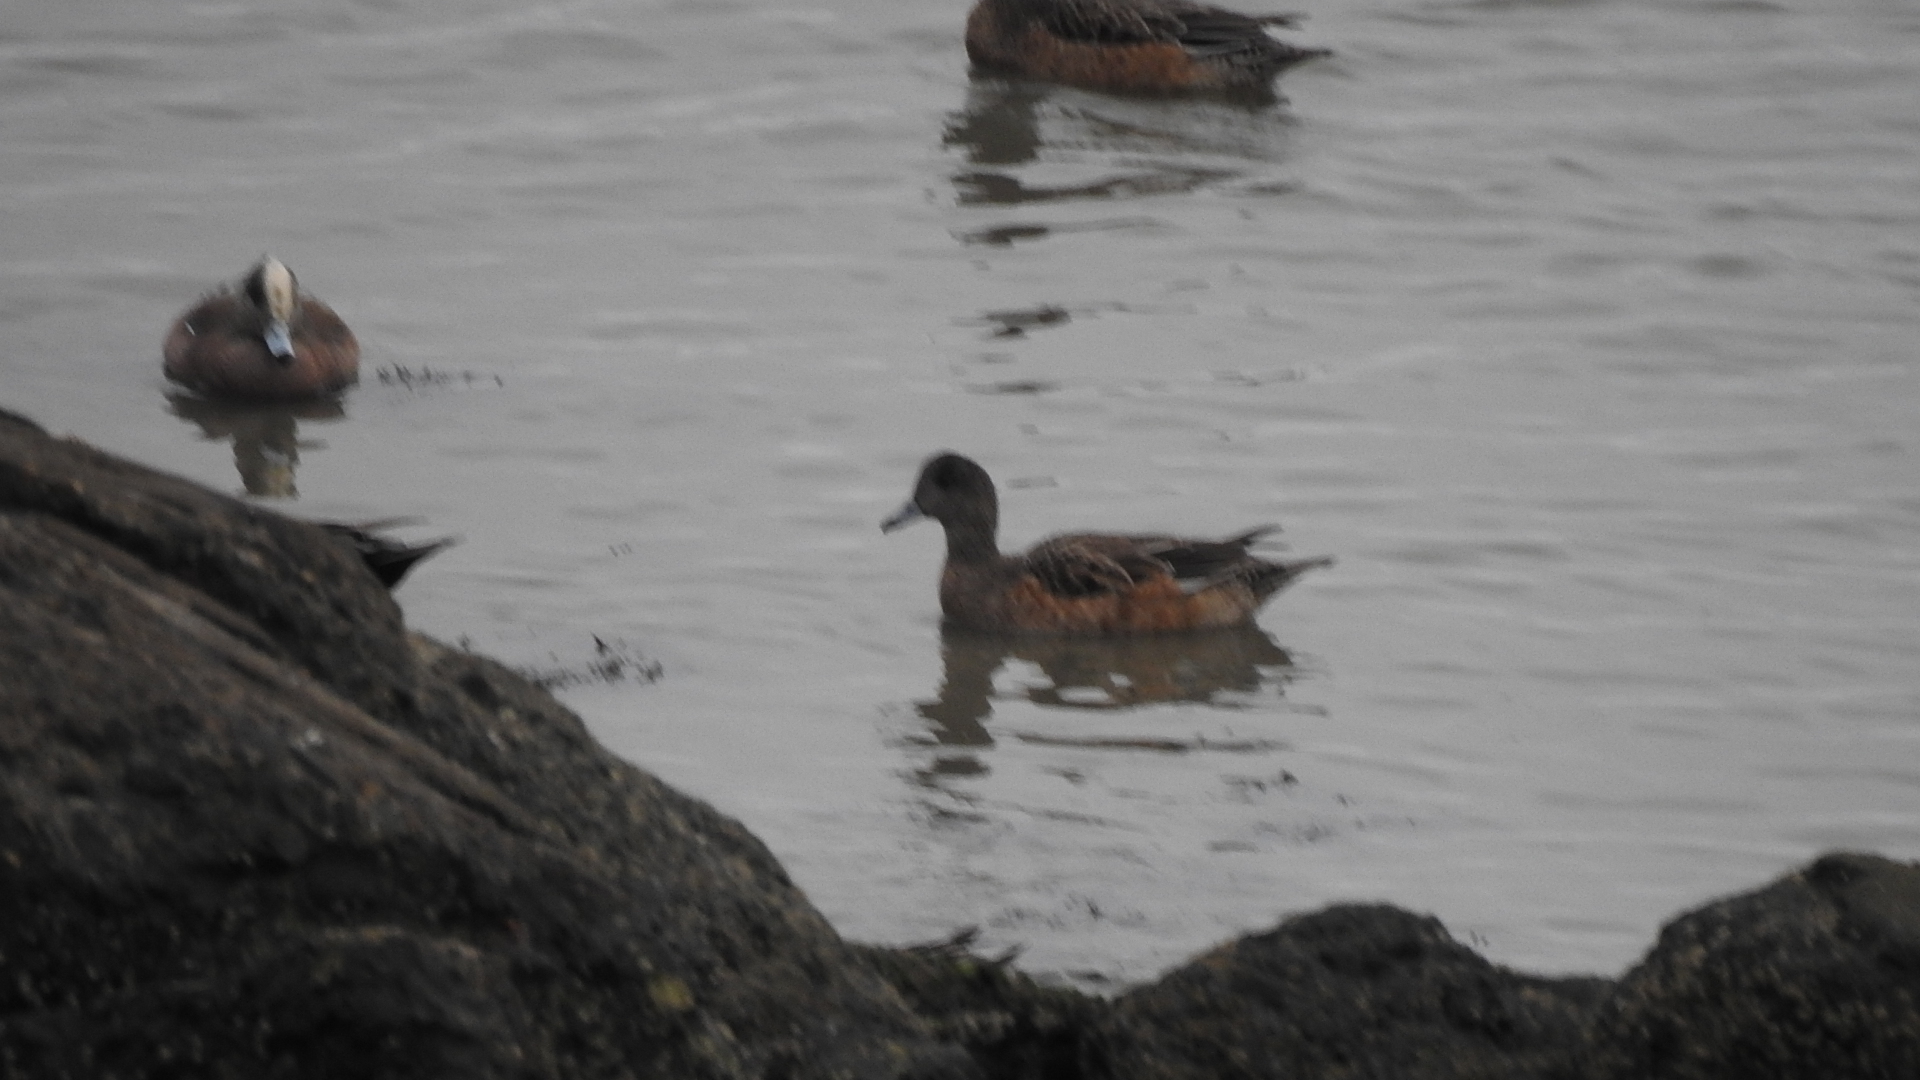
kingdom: Animalia
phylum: Chordata
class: Aves
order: Anseriformes
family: Anatidae
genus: Mareca
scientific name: Mareca americana
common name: American wigeon
